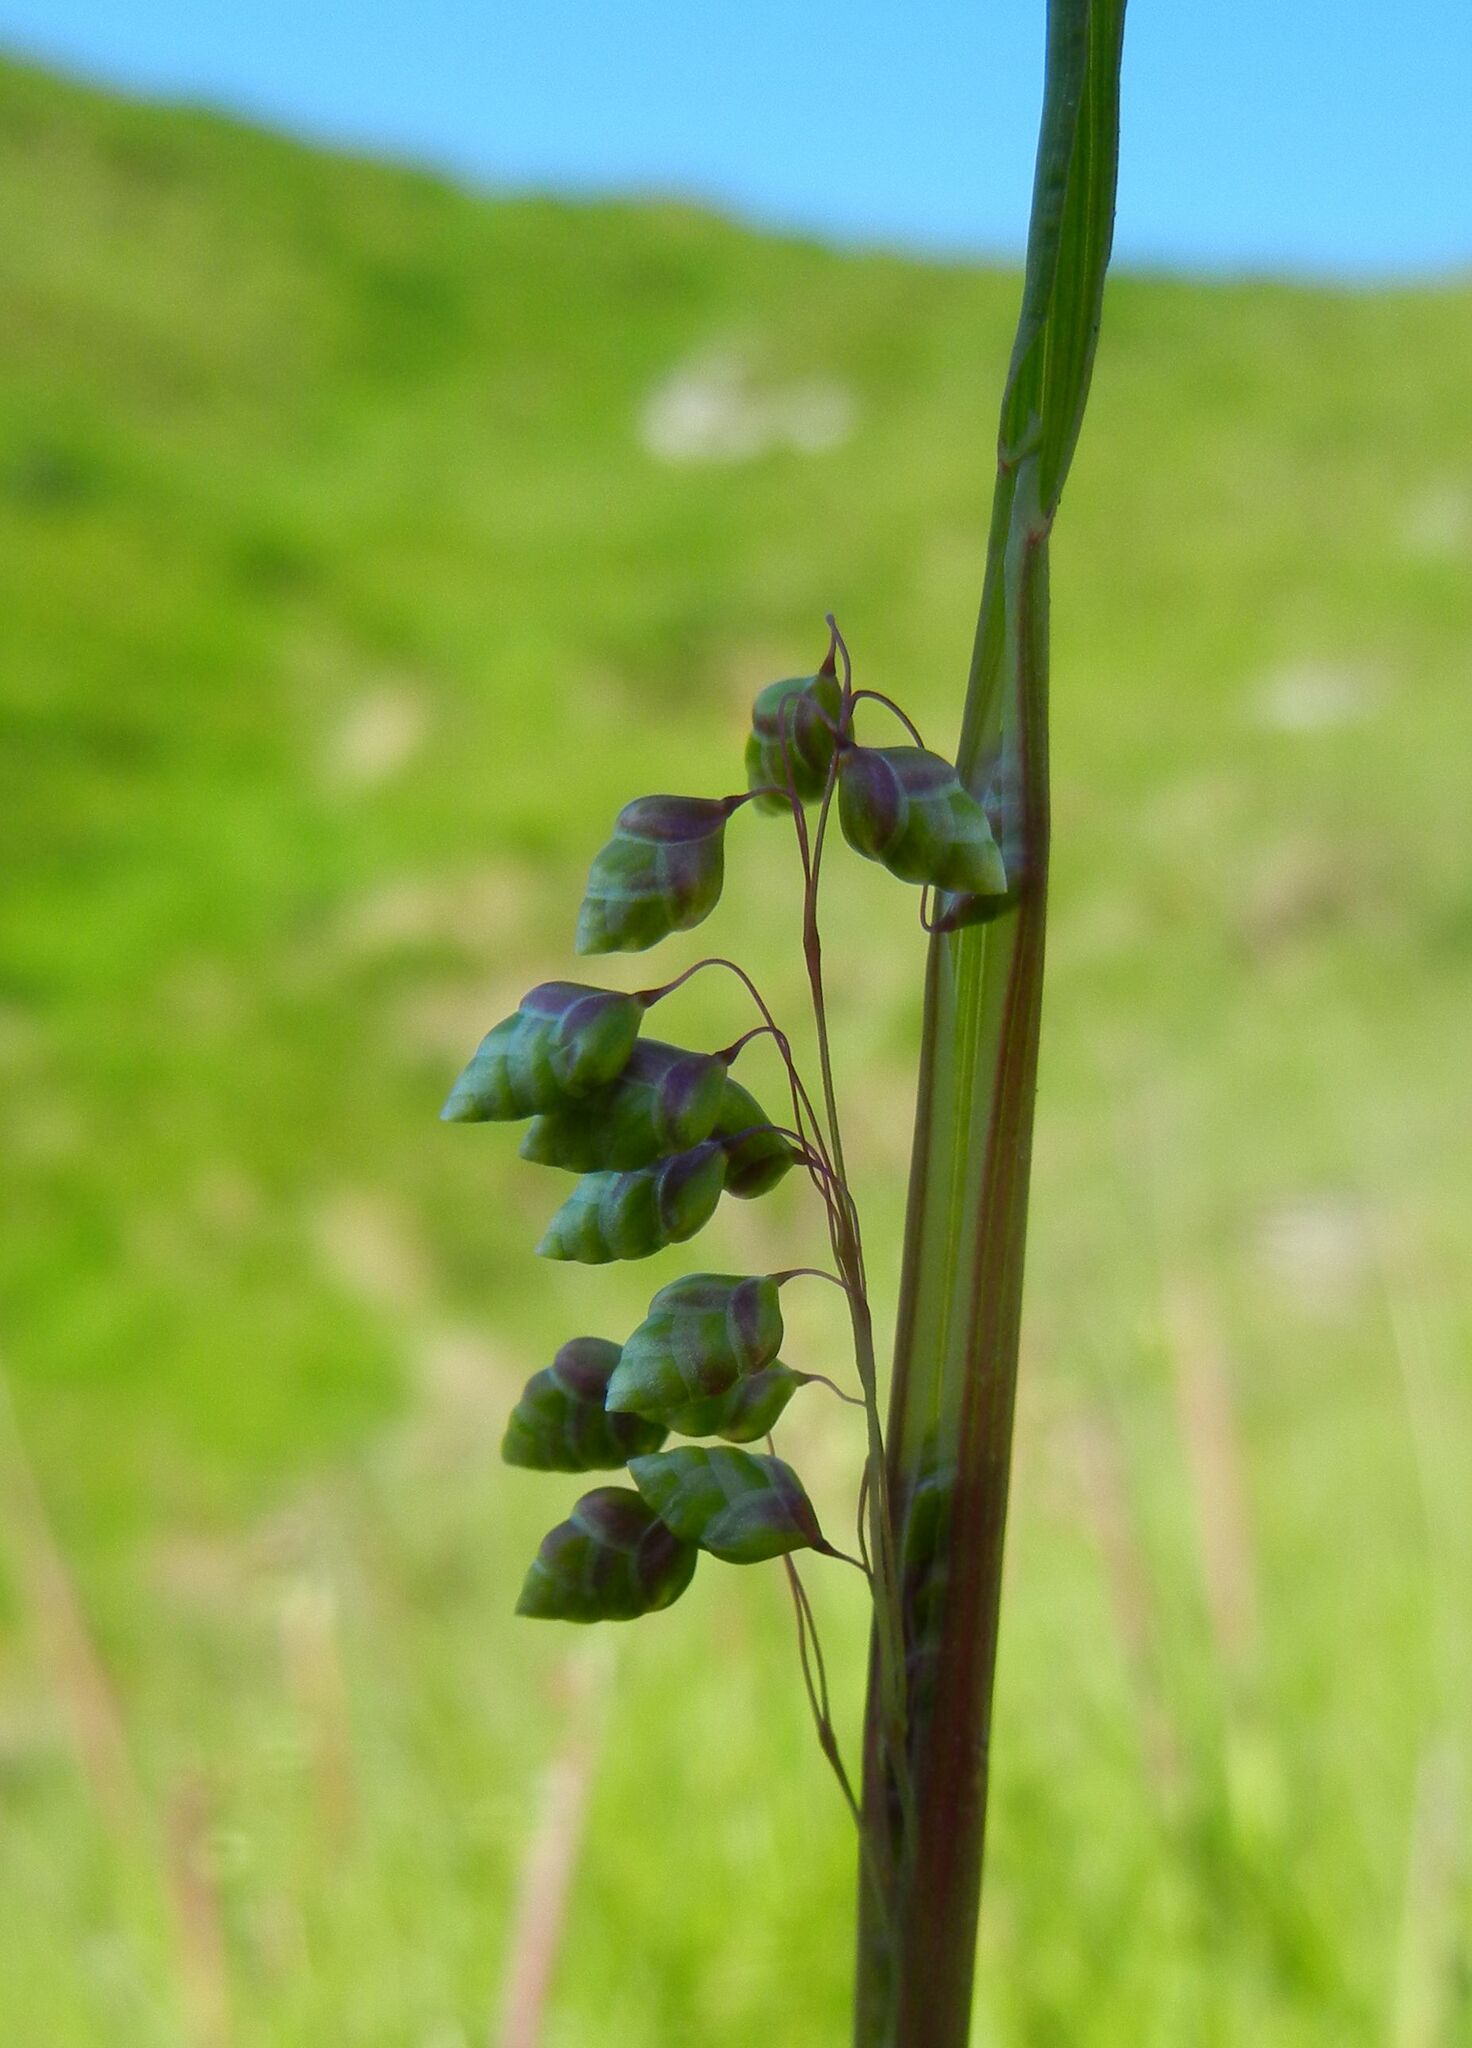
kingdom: Plantae
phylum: Tracheophyta
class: Liliopsida
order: Poales
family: Poaceae
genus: Briza
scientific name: Briza media
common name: Quaking grass
